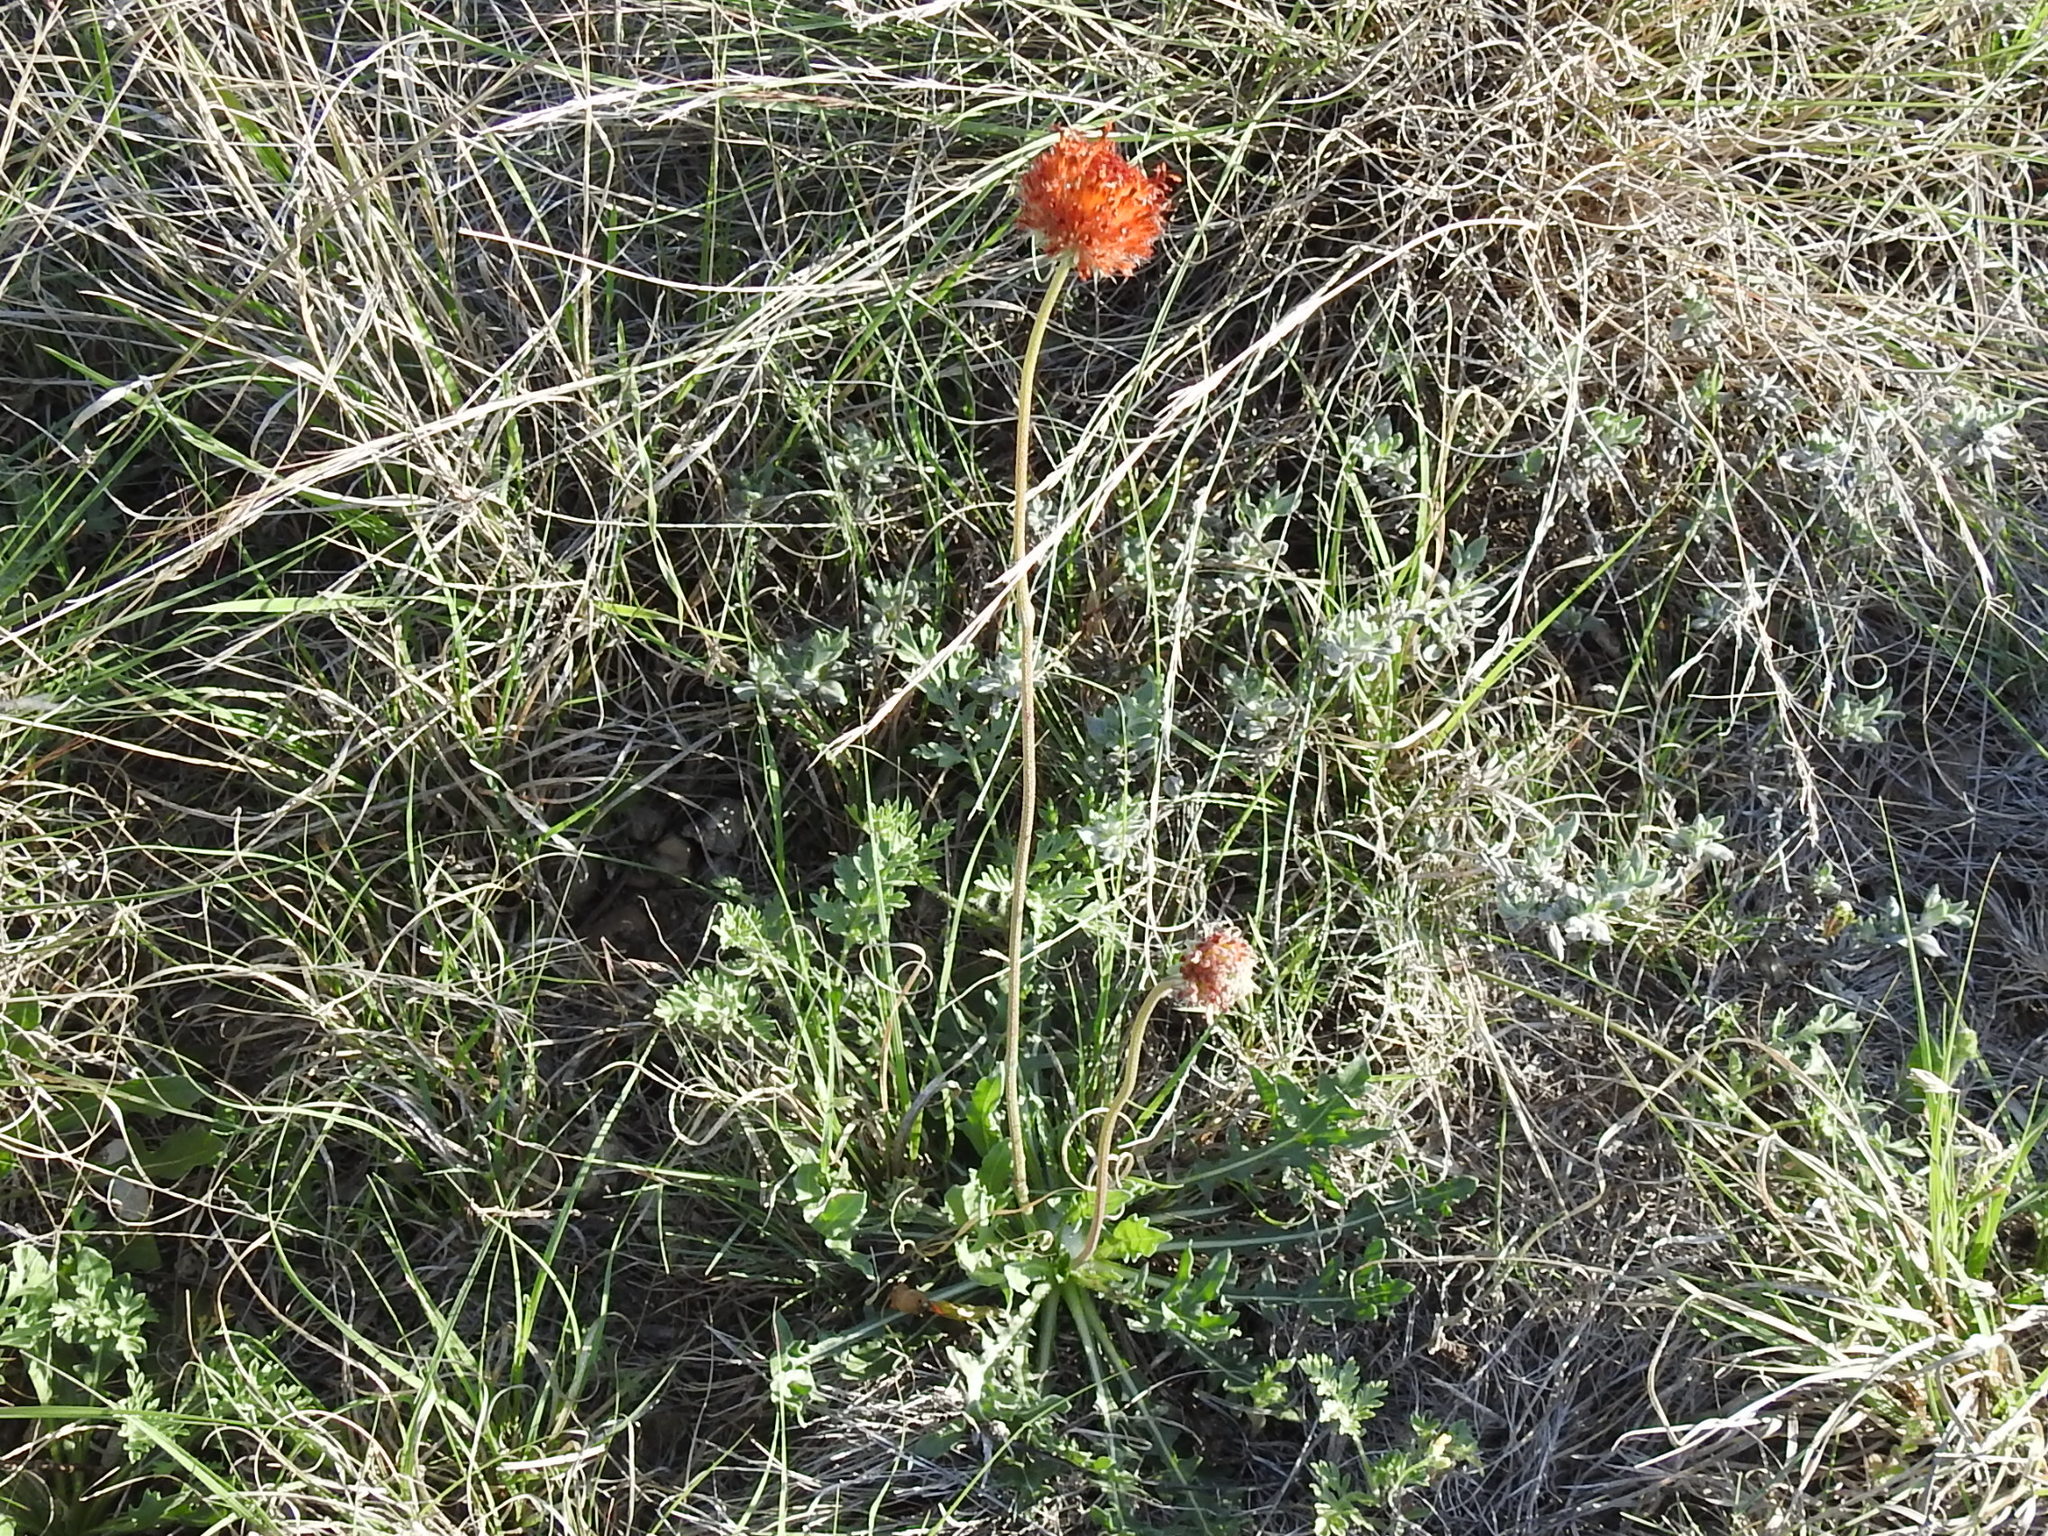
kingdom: Plantae
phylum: Tracheophyta
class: Magnoliopsida
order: Asterales
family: Asteraceae
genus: Gaillardia
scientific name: Gaillardia suavis
